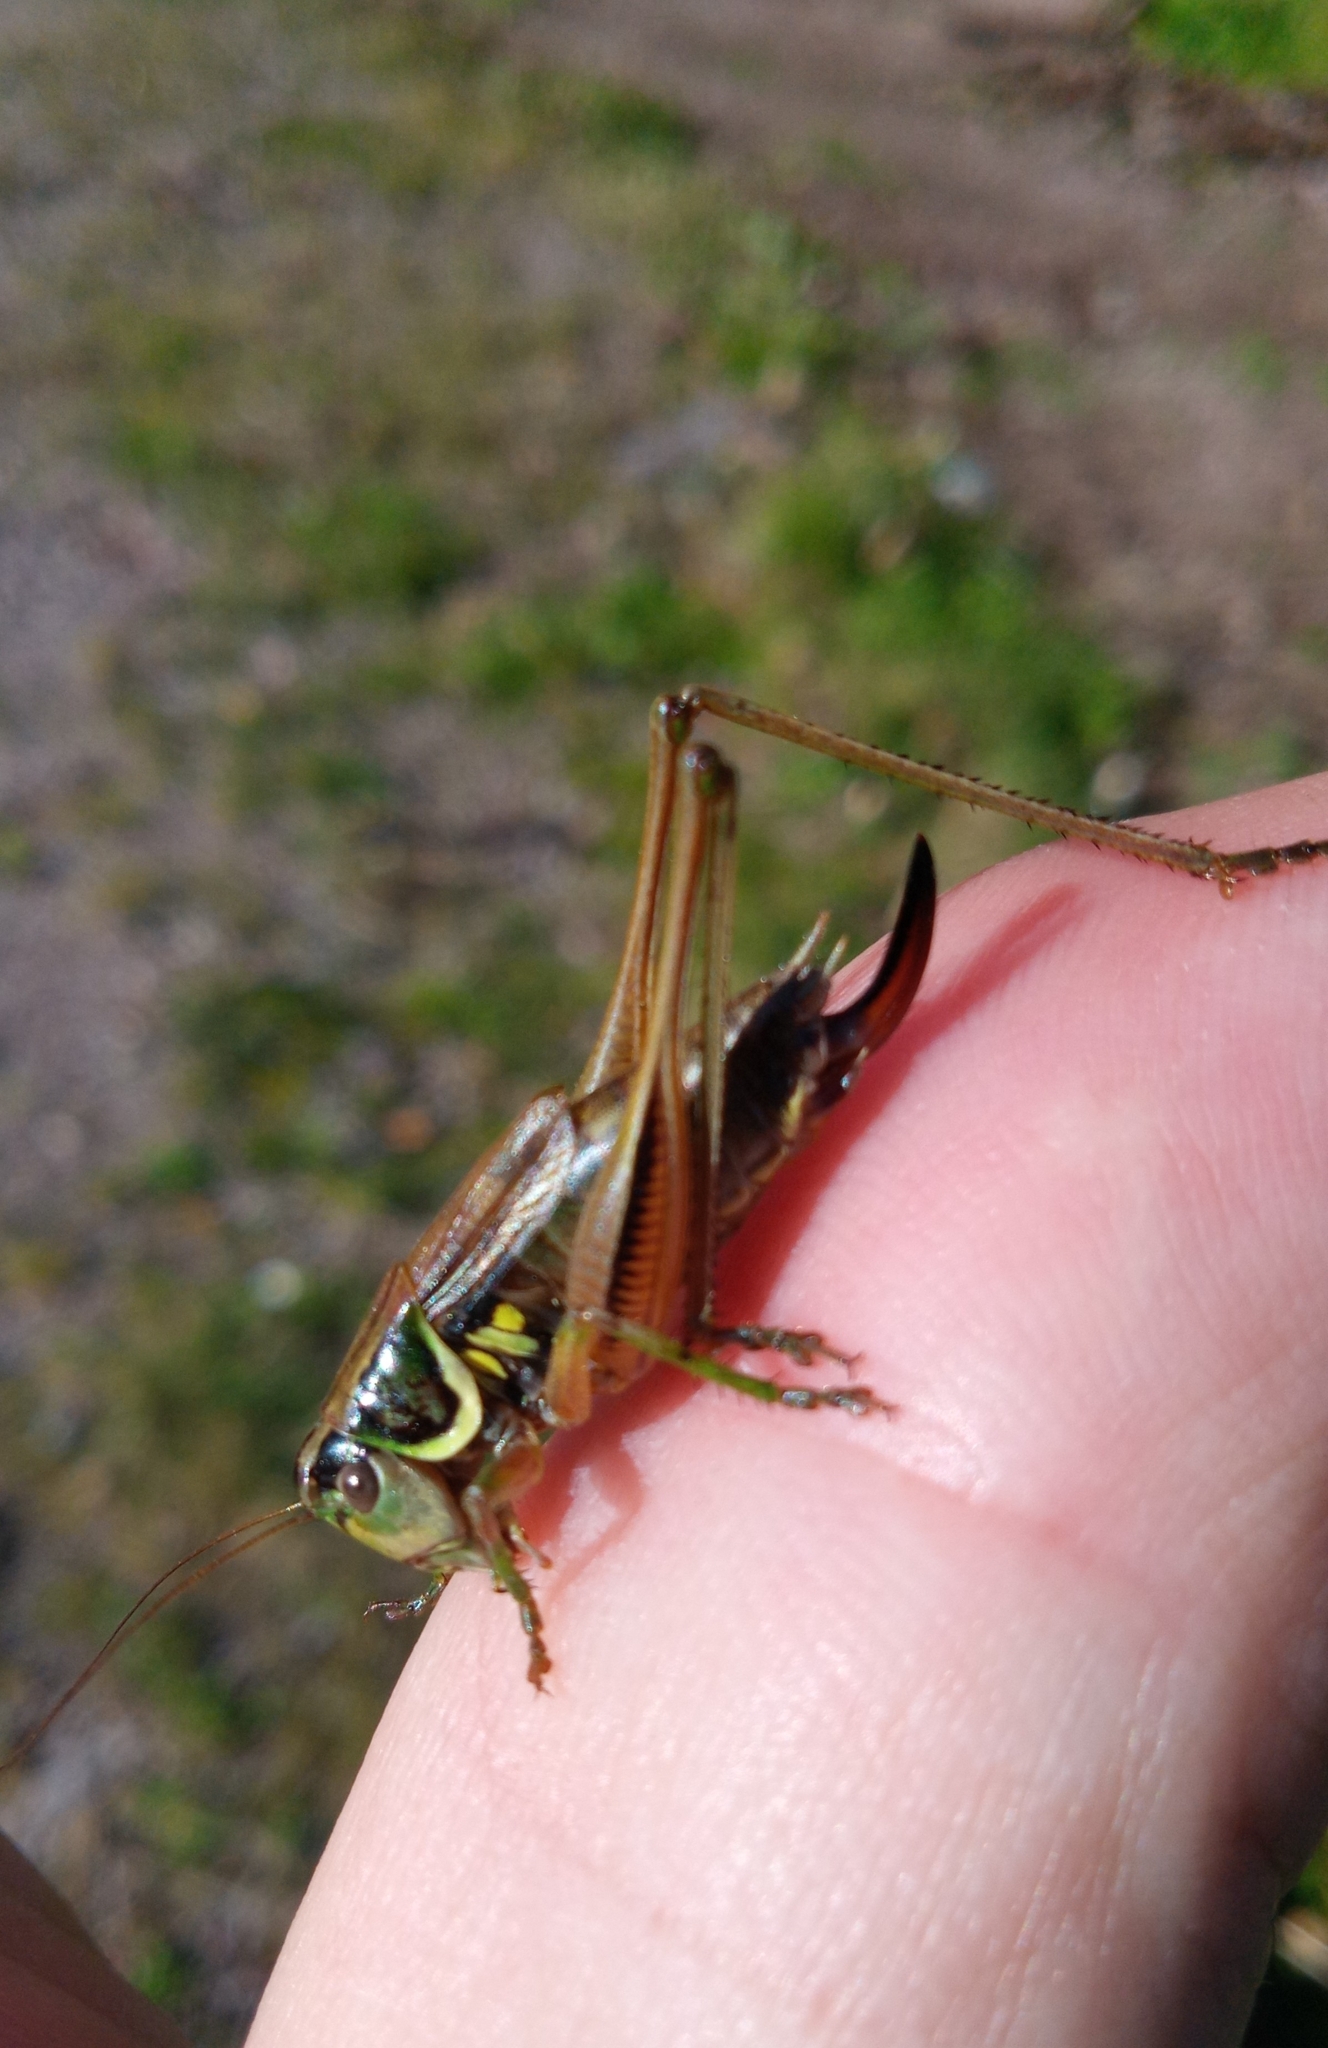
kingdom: Animalia
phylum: Arthropoda
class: Insecta
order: Orthoptera
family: Tettigoniidae
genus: Roeseliana
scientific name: Roeseliana roeselii
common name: Roesel's bush cricket
